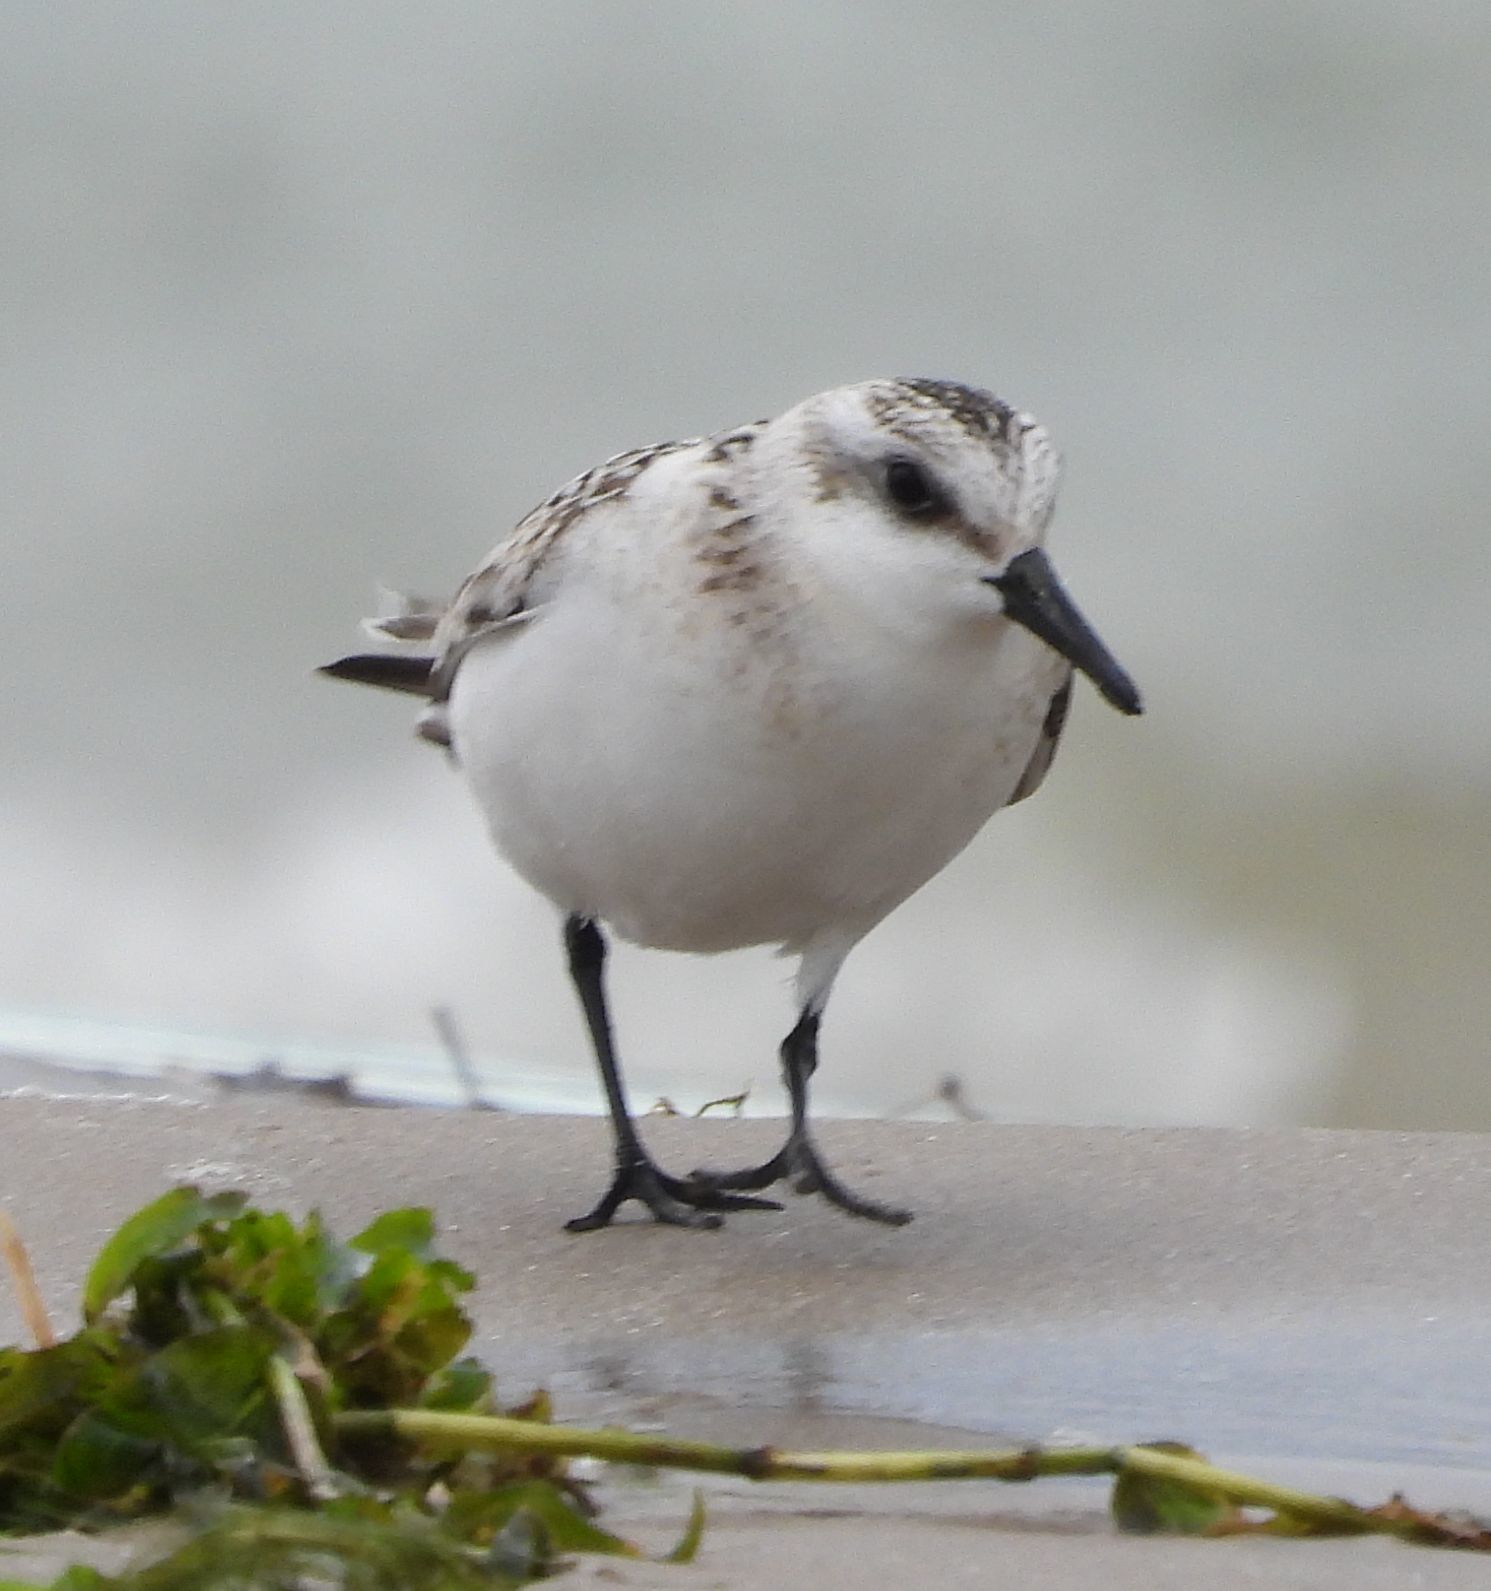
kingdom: Animalia
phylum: Chordata
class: Aves
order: Charadriiformes
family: Scolopacidae
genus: Calidris
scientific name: Calidris alba
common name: Sanderling
